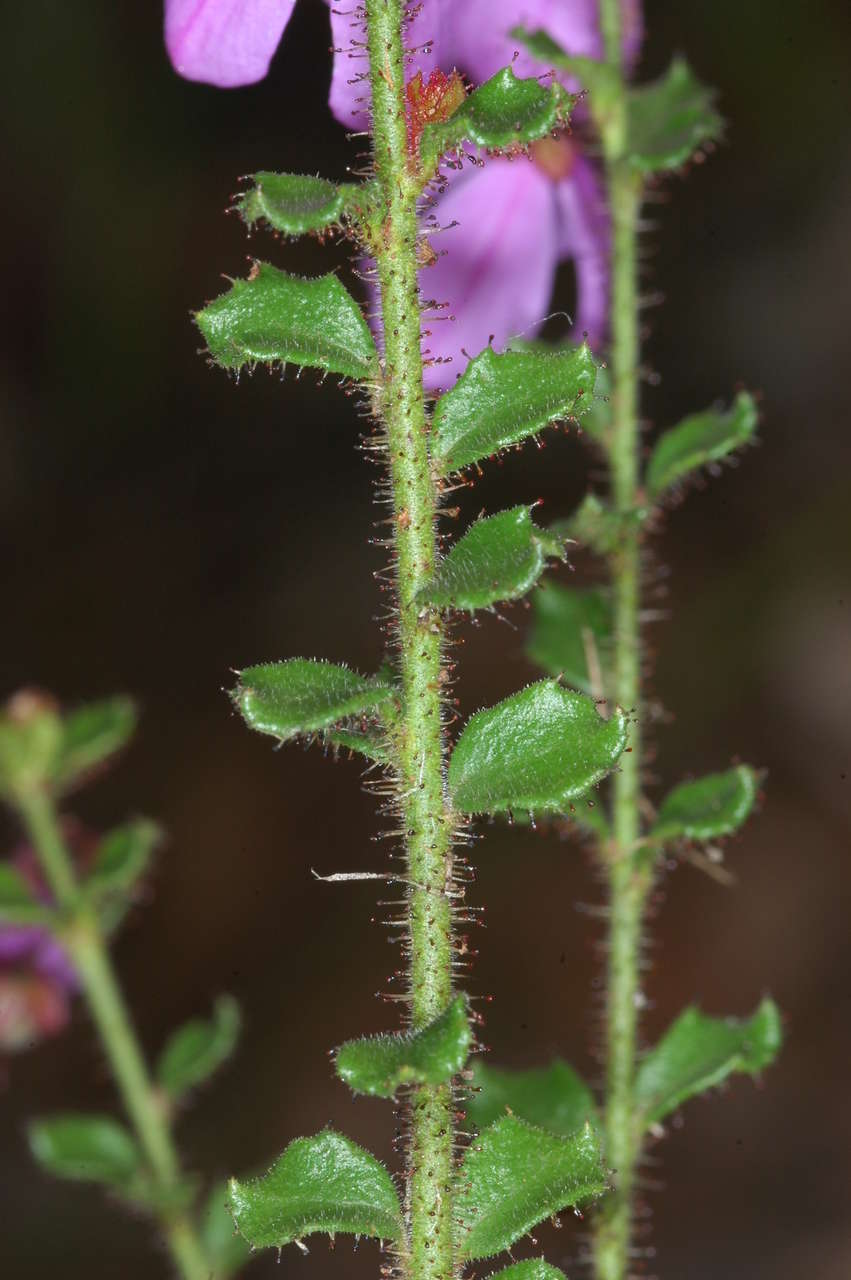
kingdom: Plantae
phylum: Tracheophyta
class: Magnoliopsida
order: Oxalidales
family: Elaeocarpaceae
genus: Tetratheca
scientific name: Tetratheca labillardierei
